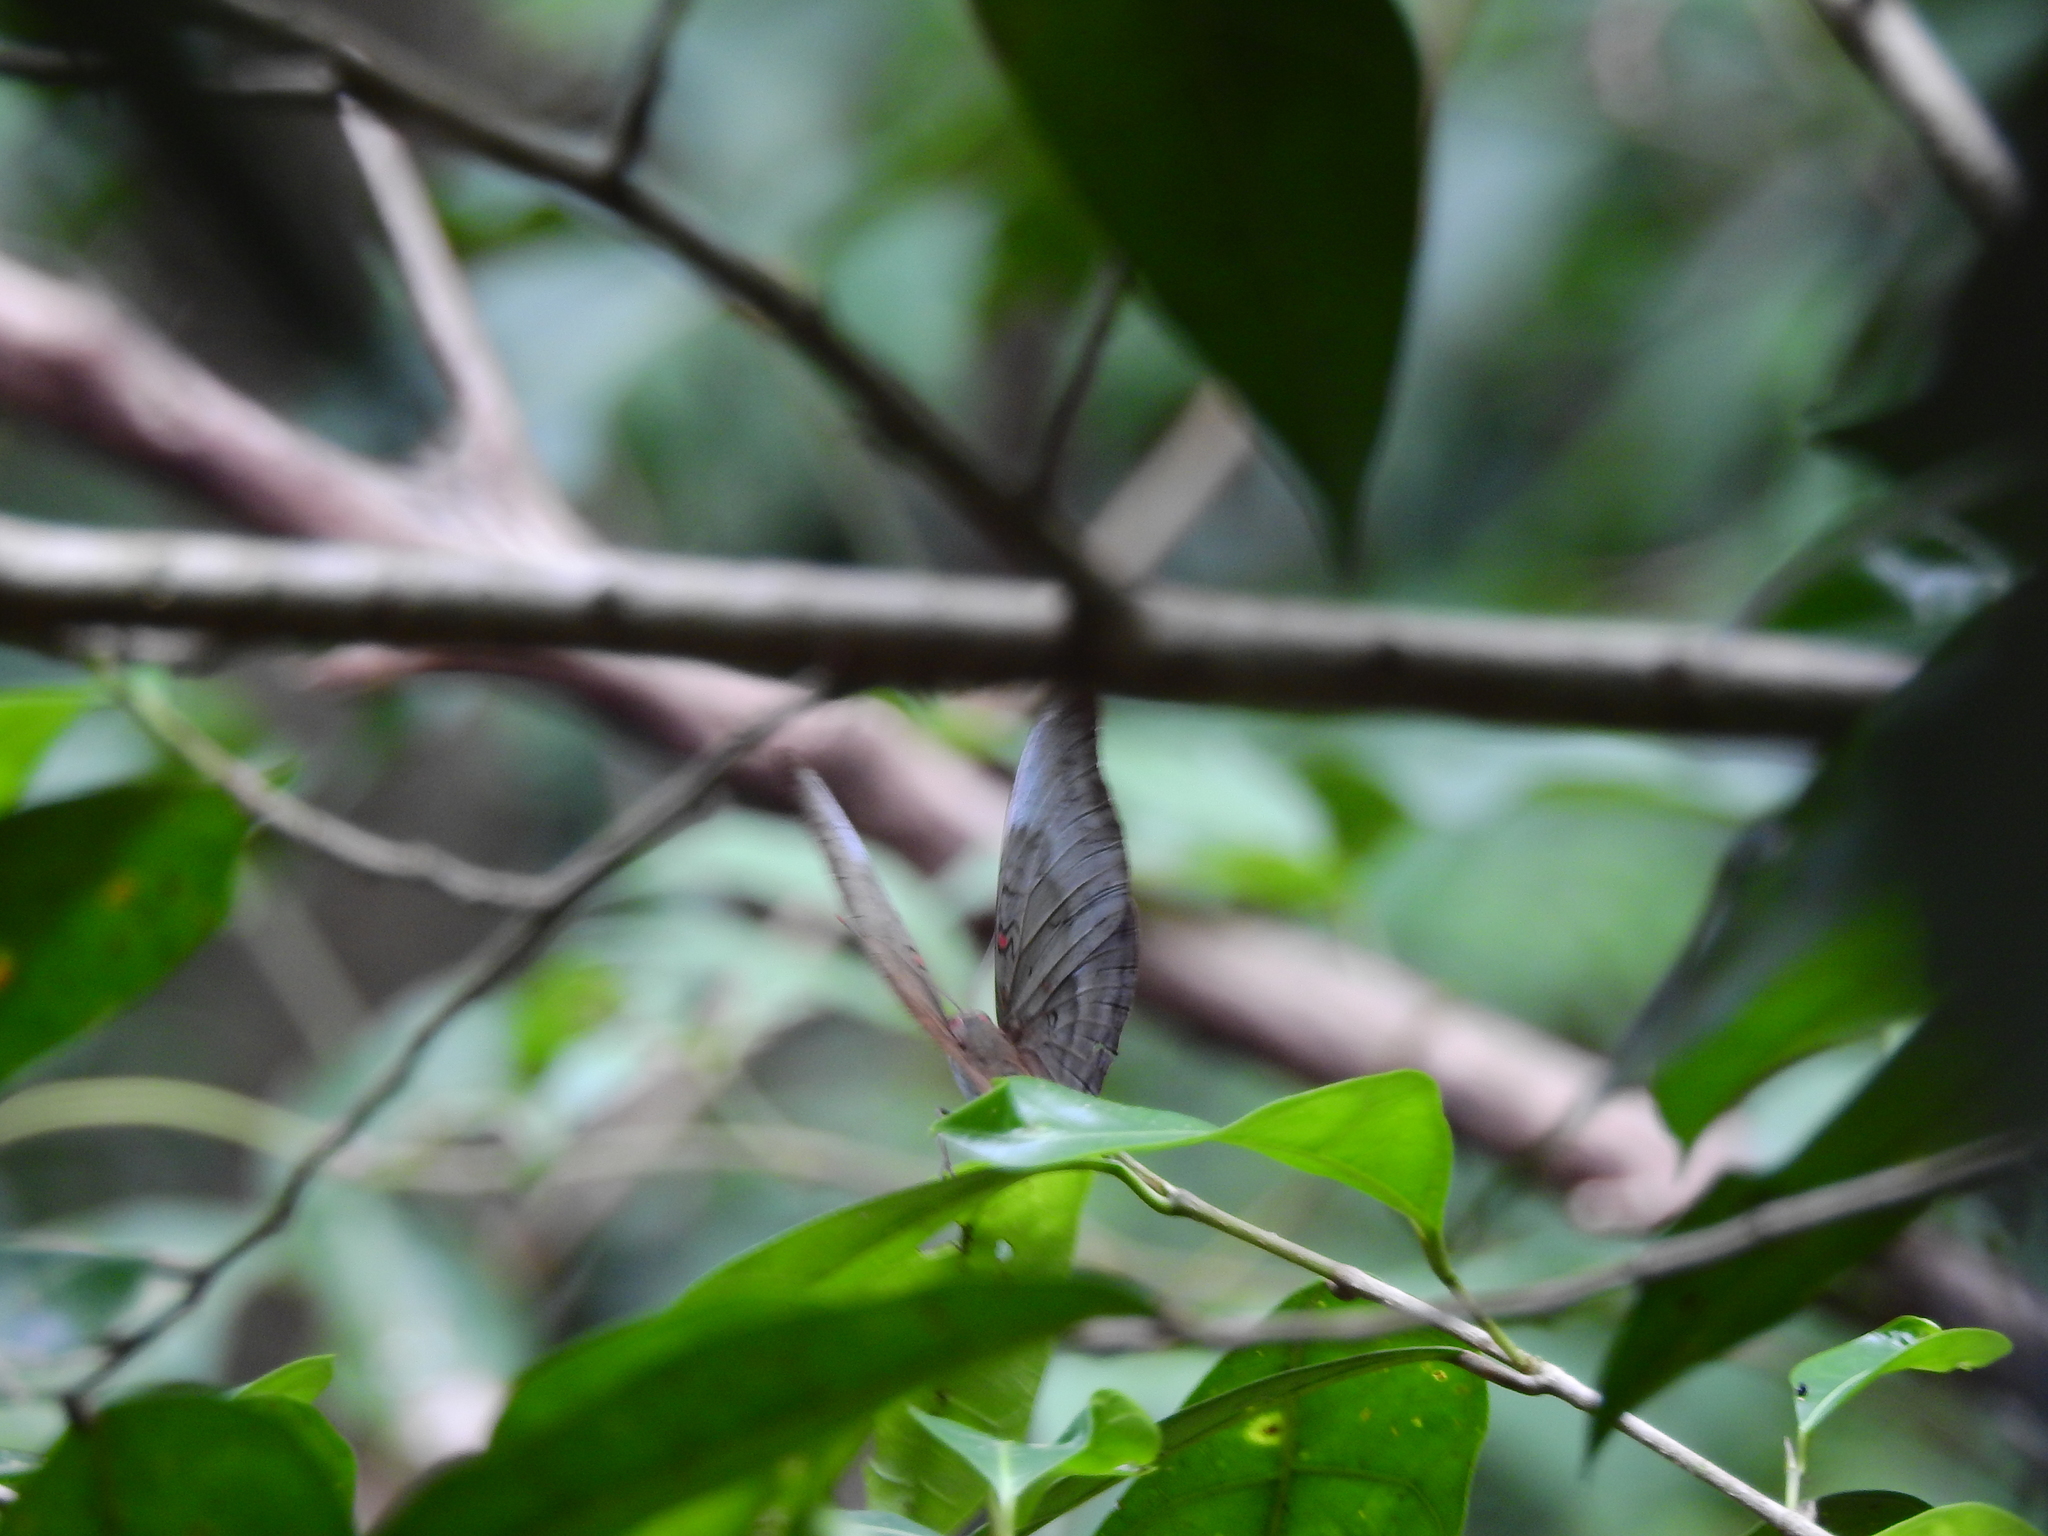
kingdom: Animalia
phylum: Arthropoda
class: Insecta
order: Lepidoptera
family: Nymphalidae
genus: Euthalia
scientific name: Euthalia Dophla evelina
